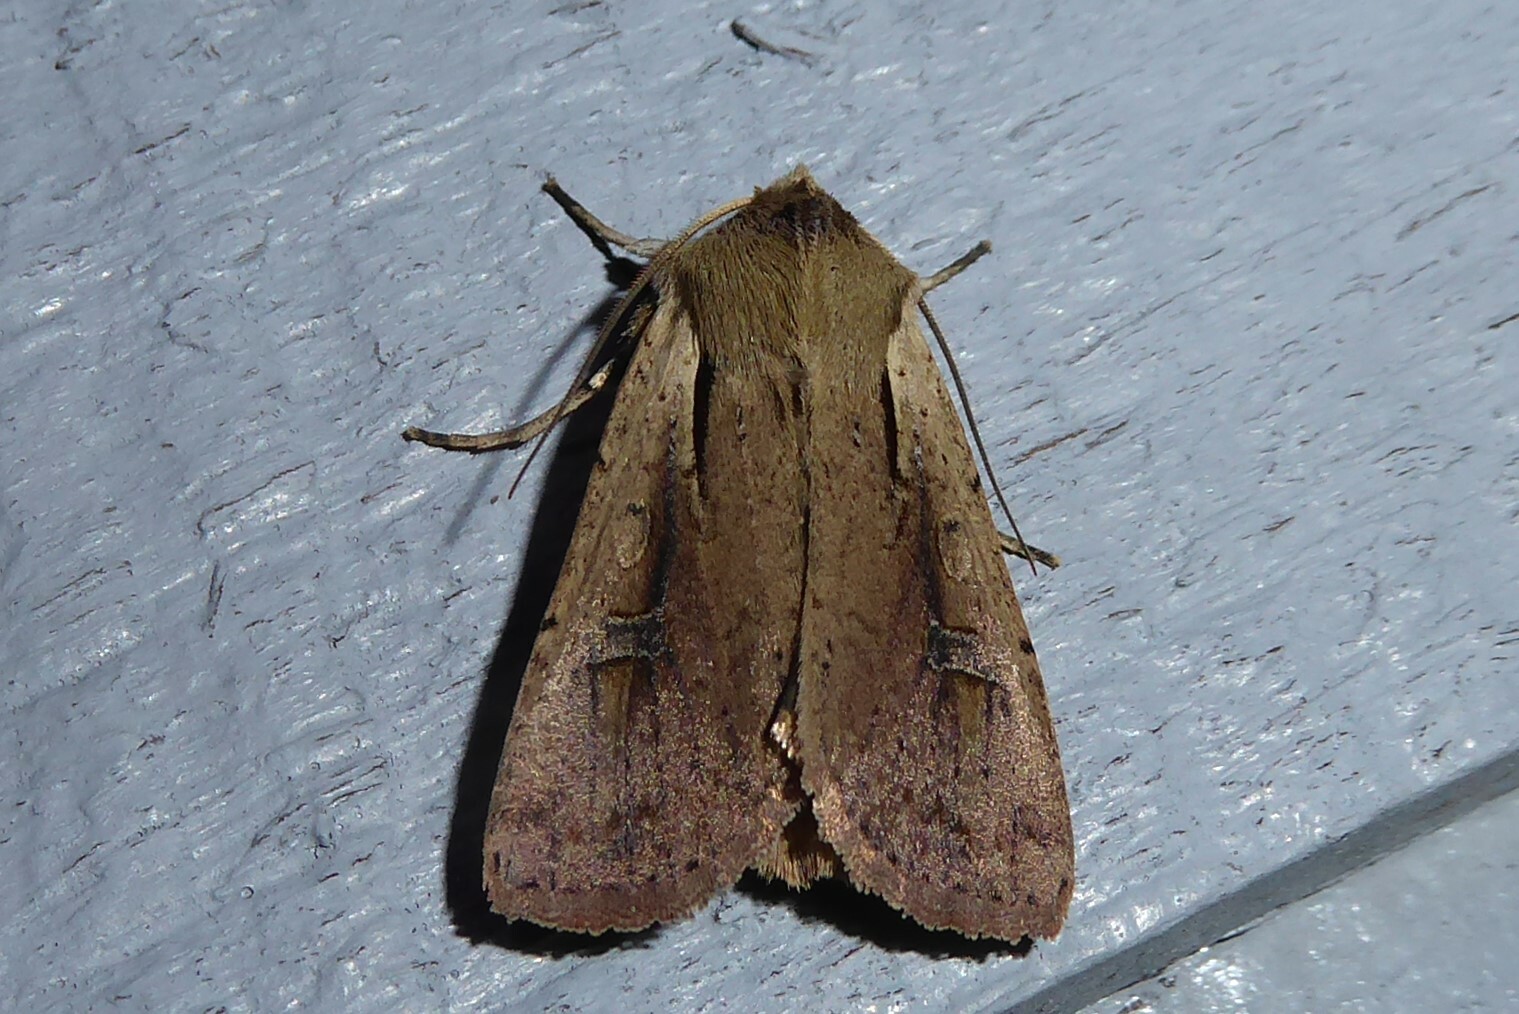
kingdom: Animalia
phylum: Arthropoda
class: Insecta
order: Lepidoptera
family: Noctuidae
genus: Ichneutica
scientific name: Ichneutica atristriga
